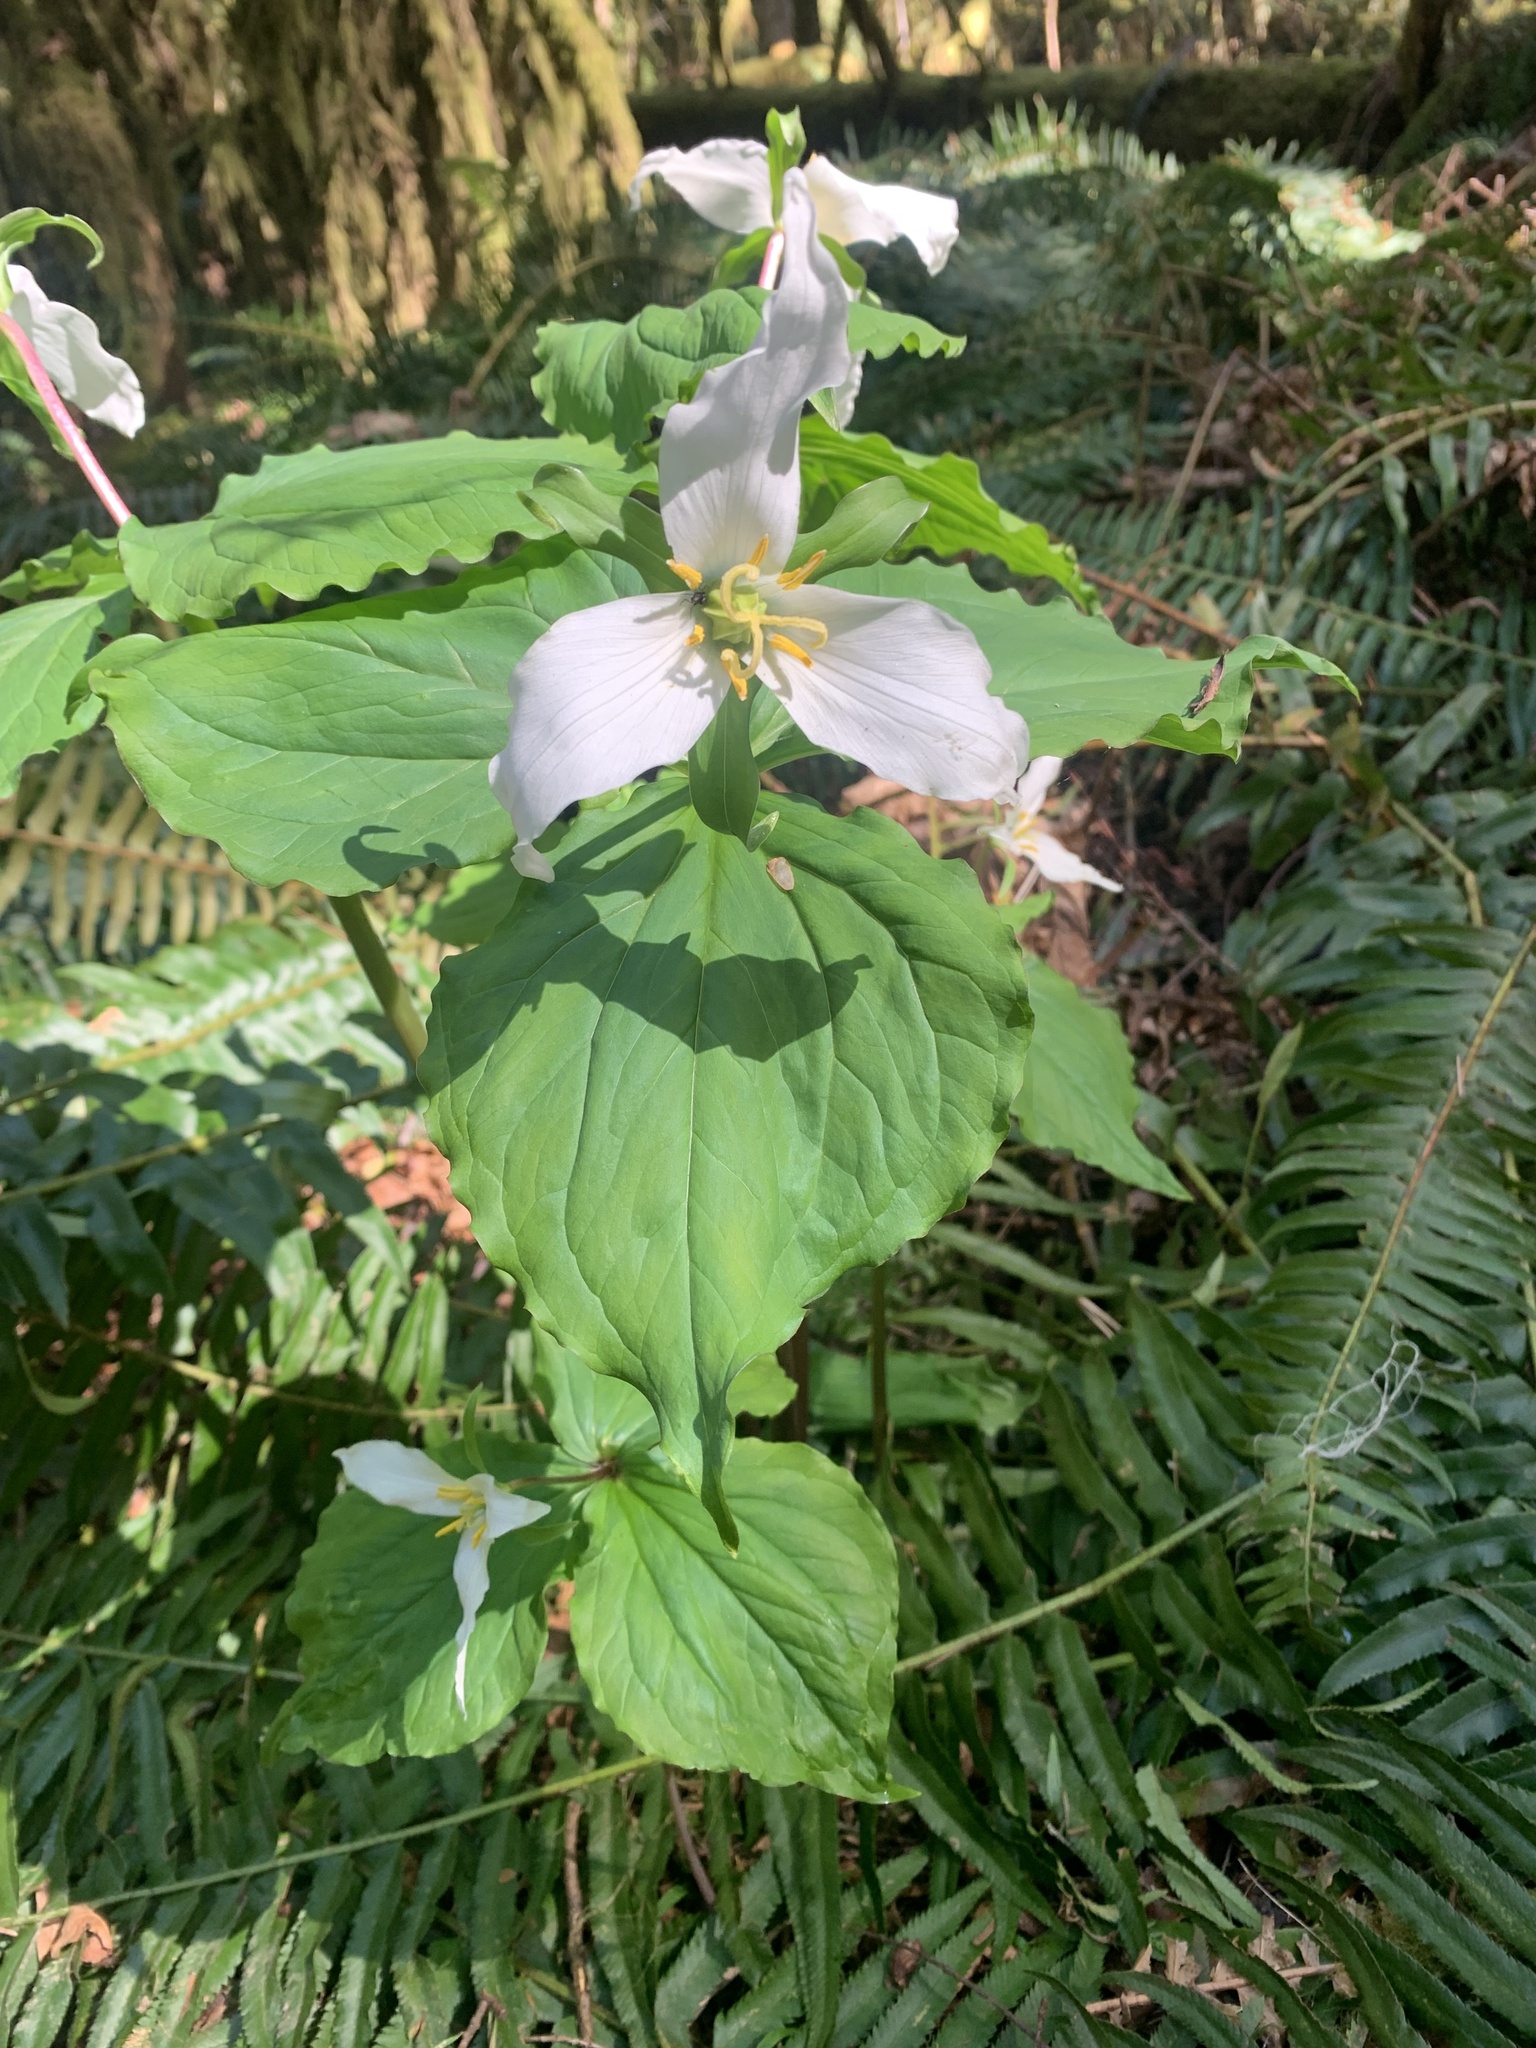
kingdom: Plantae
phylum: Tracheophyta
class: Liliopsida
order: Liliales
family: Melanthiaceae
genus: Trillium
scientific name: Trillium ovatum
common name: Pacific trillium
